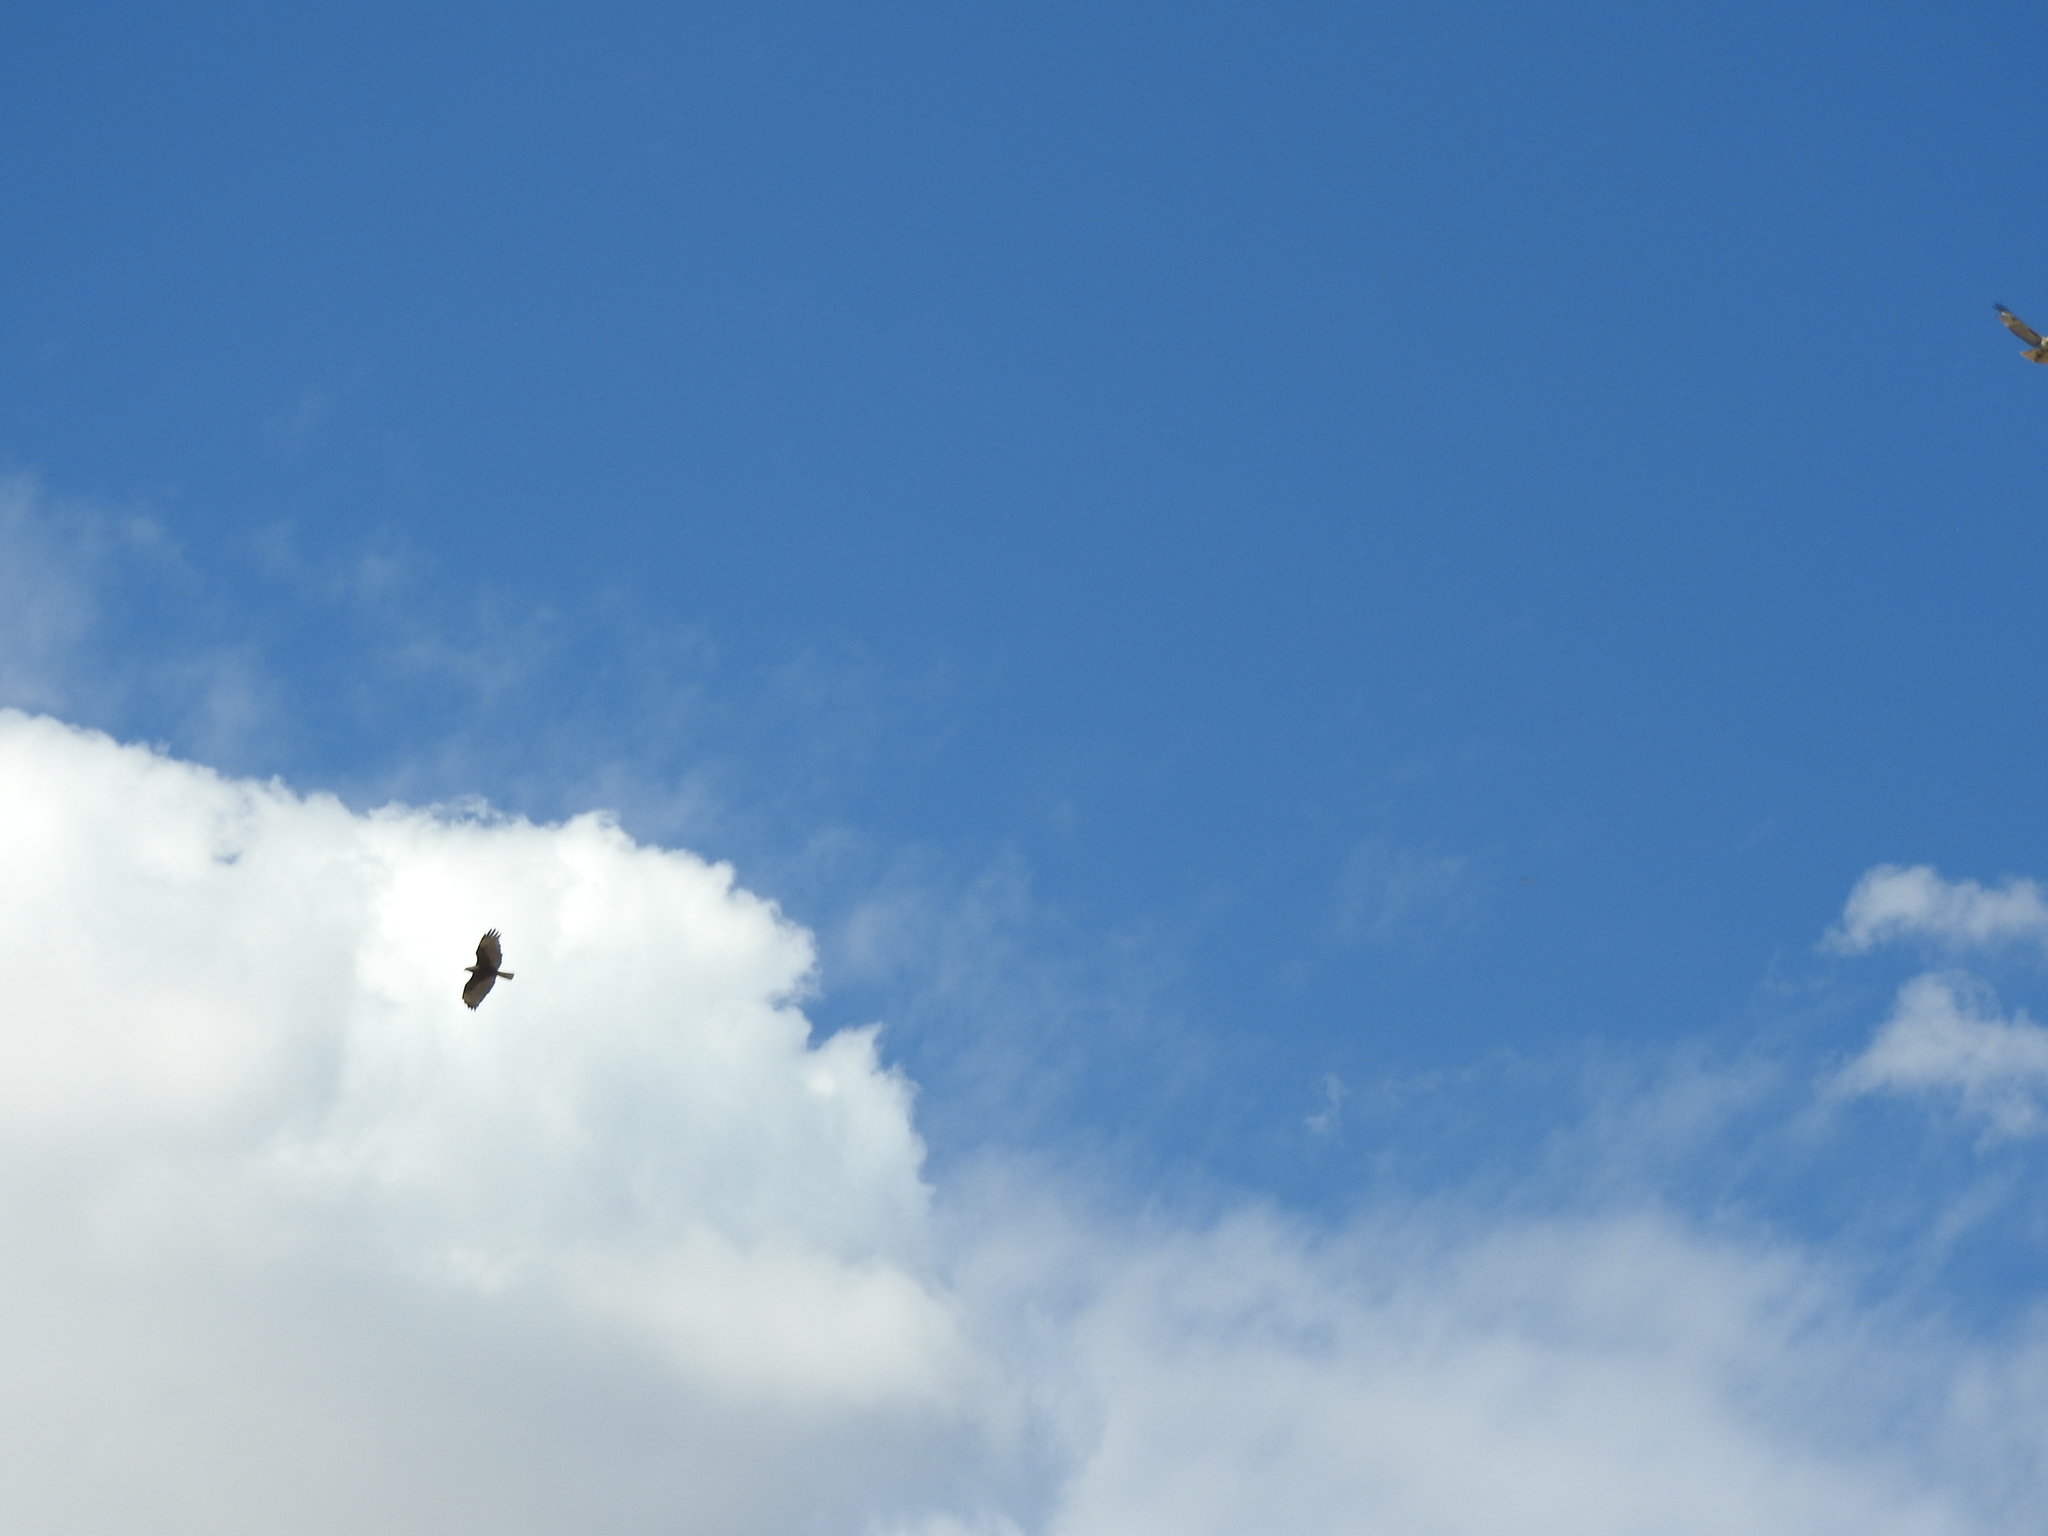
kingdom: Animalia
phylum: Chordata
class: Aves
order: Accipitriformes
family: Accipitridae
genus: Buteo
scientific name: Buteo jamaicensis
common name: Red-tailed hawk
